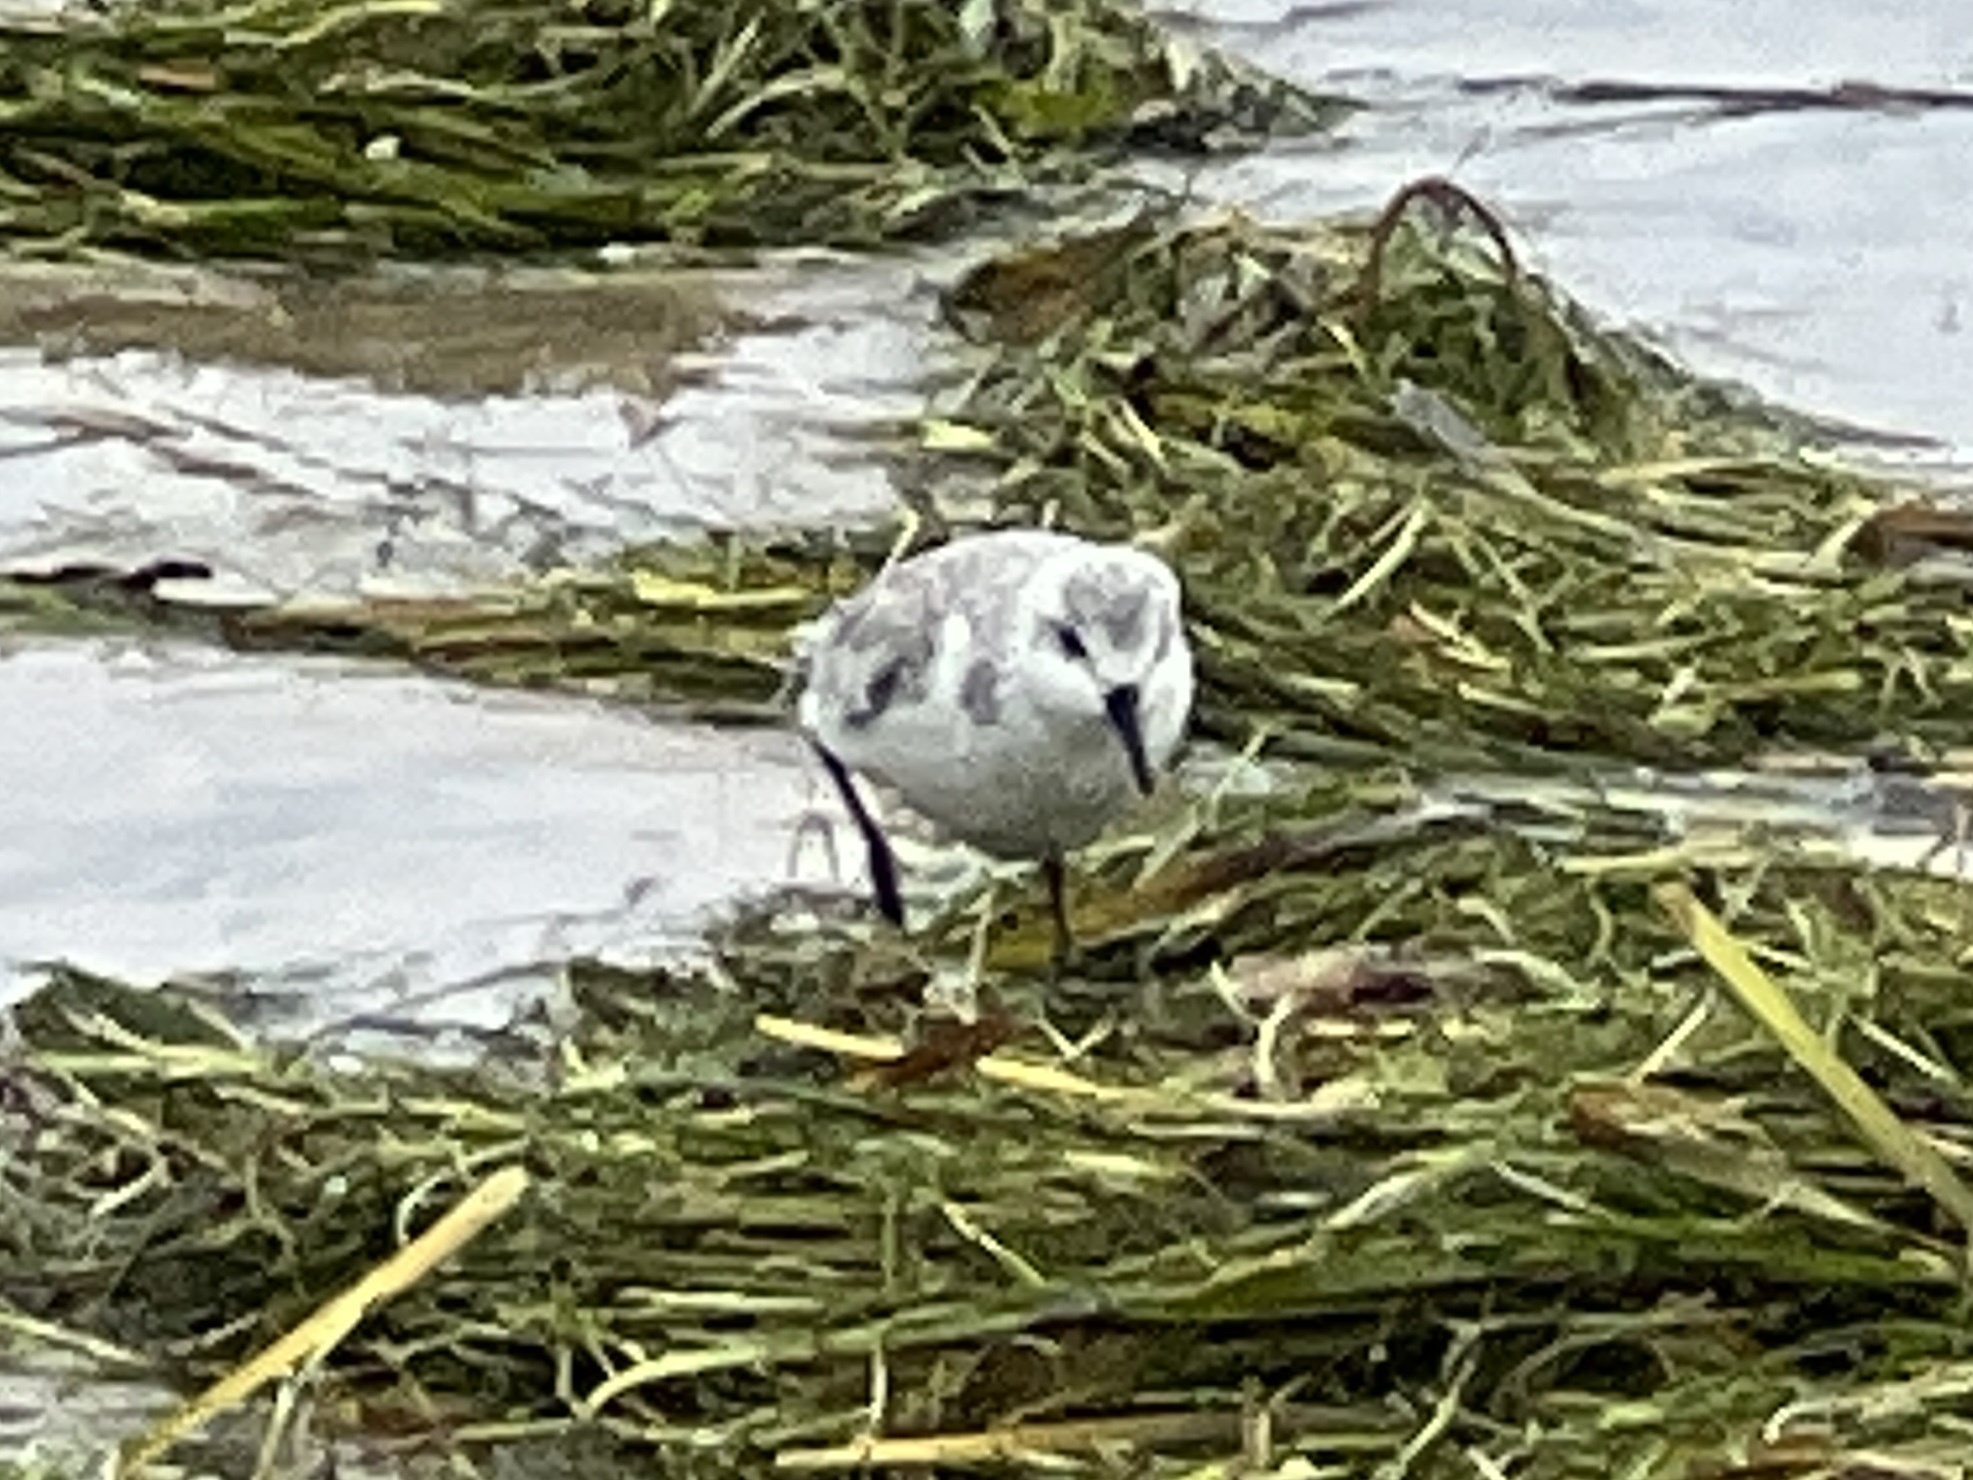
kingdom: Animalia
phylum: Chordata
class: Aves
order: Charadriiformes
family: Scolopacidae
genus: Calidris
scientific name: Calidris alba
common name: Sanderling
